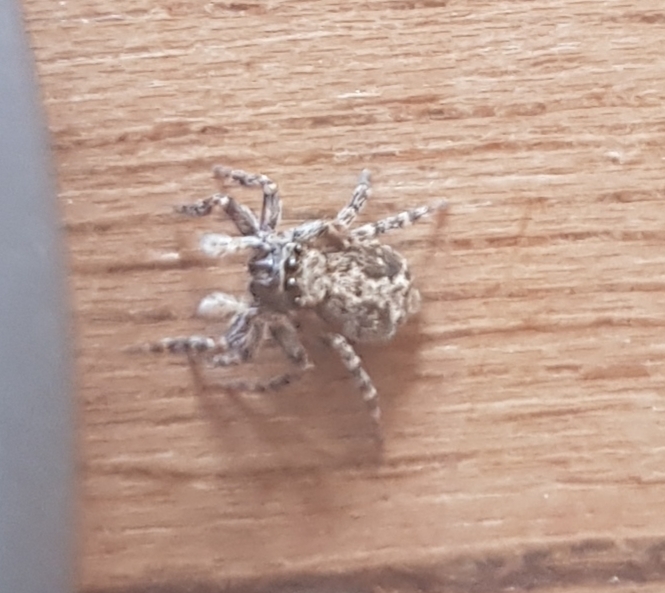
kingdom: Animalia
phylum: Arthropoda
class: Arachnida
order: Araneae
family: Salticidae
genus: Pseudeuophrys
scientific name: Pseudeuophrys lanigera
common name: Jumping spider
